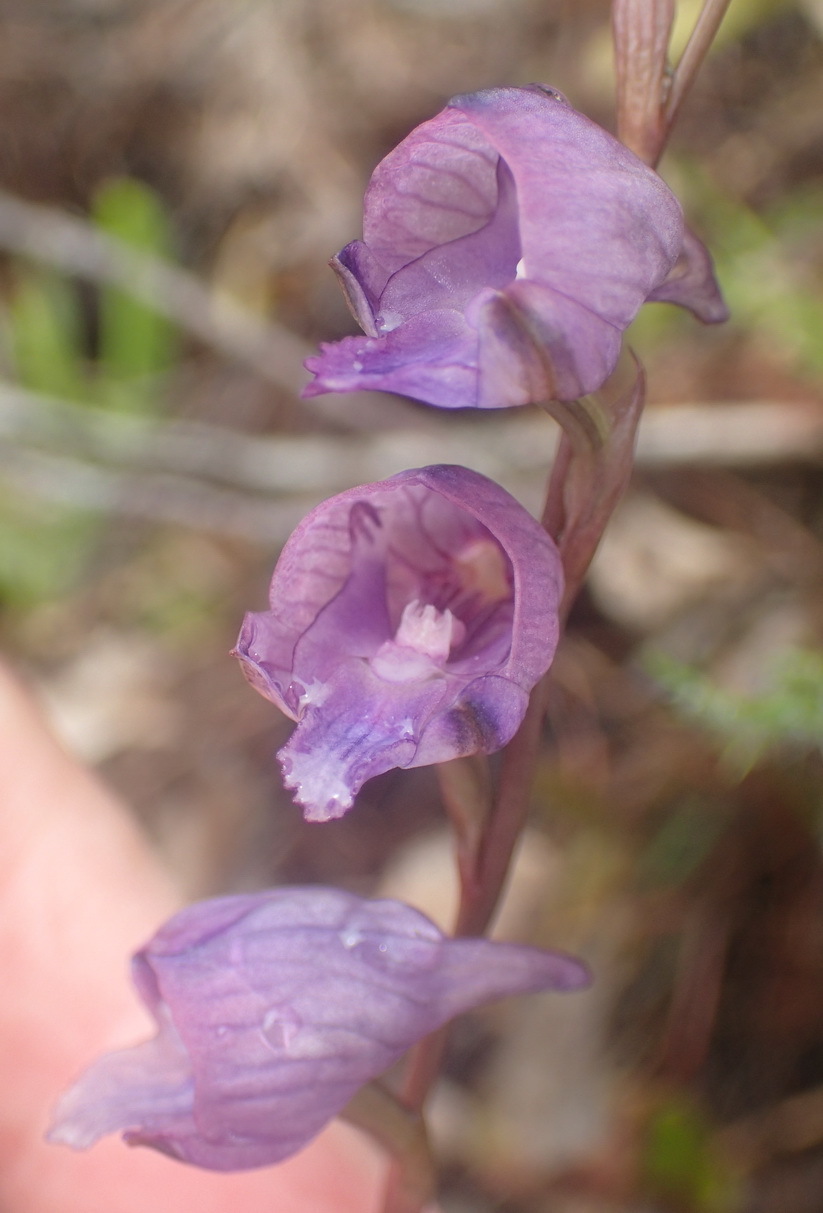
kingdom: Plantae
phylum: Tracheophyta
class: Liliopsida
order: Asparagales
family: Orchidaceae
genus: Disa
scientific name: Disa hians
